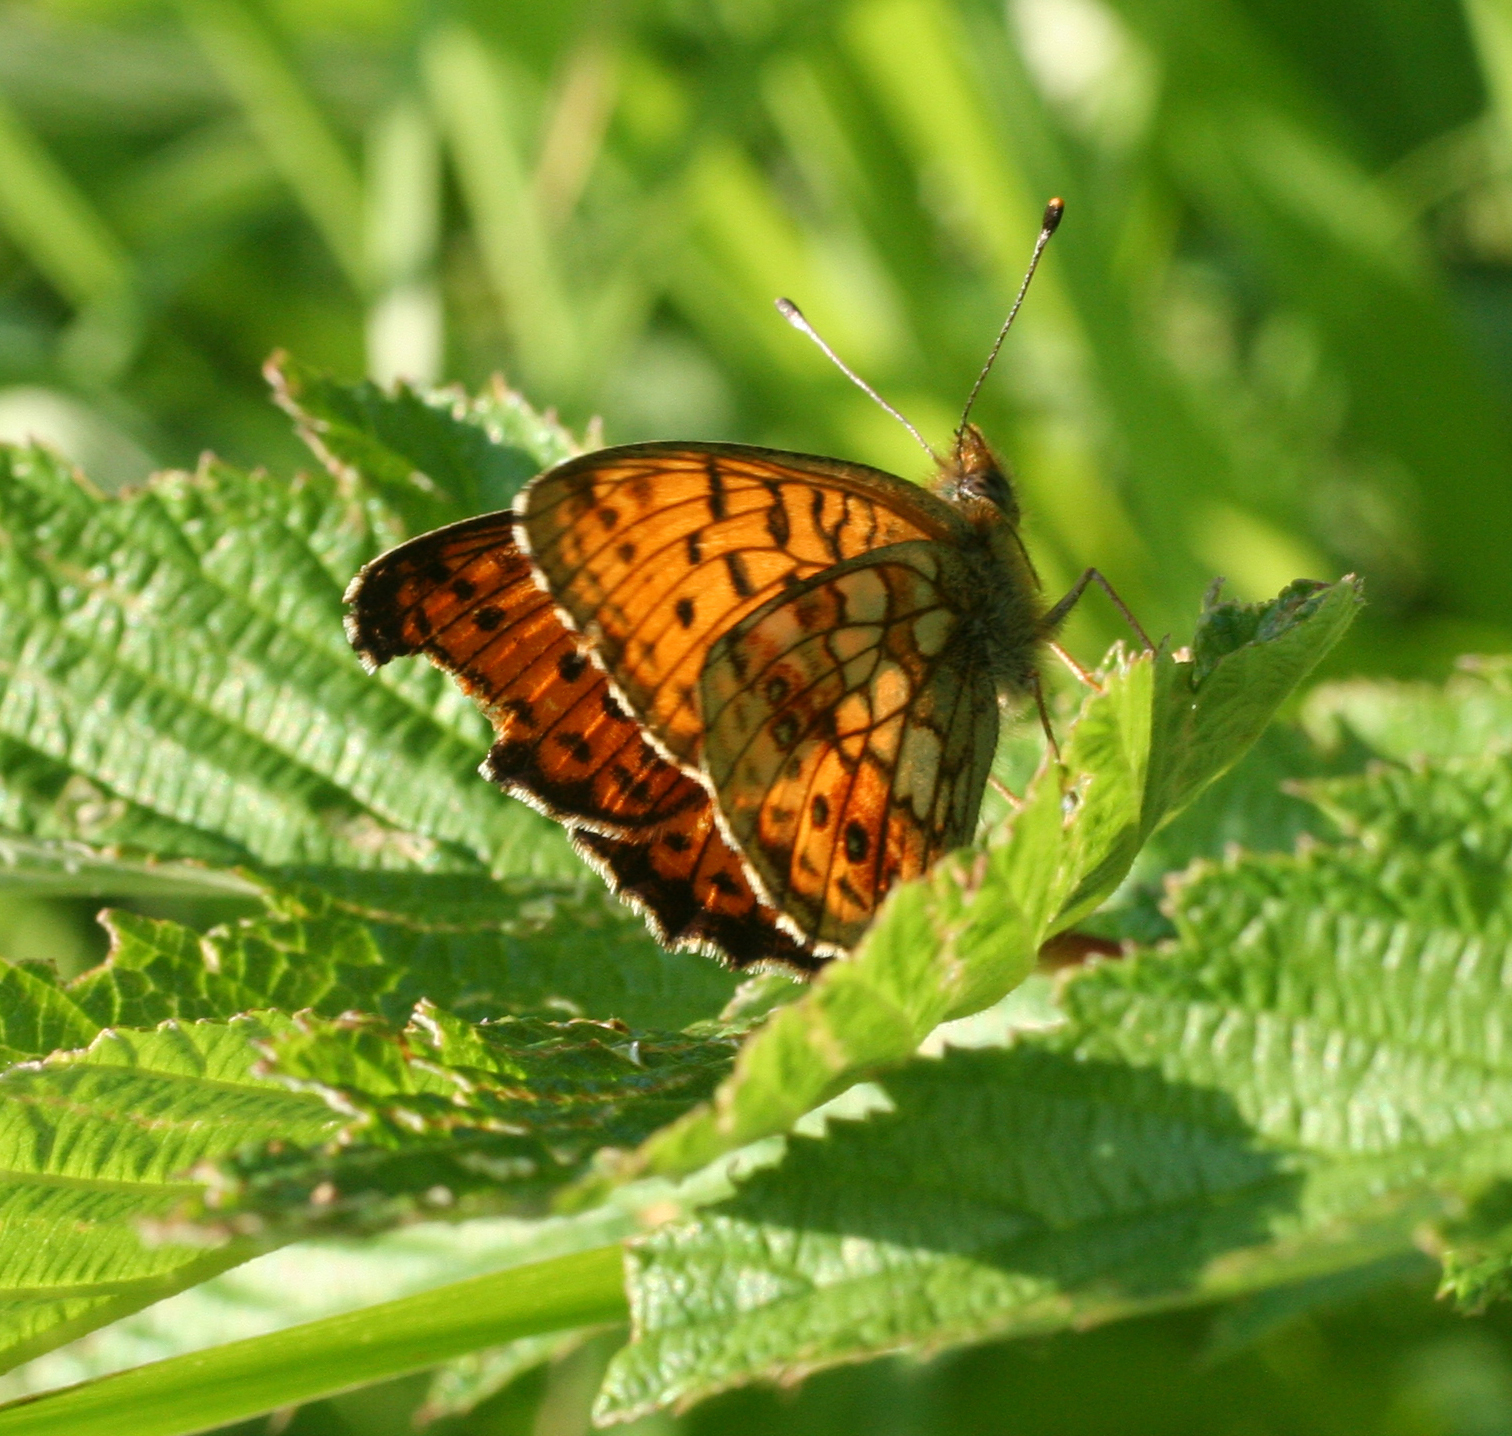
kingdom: Animalia
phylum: Arthropoda
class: Insecta
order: Lepidoptera
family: Nymphalidae
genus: Brenthis
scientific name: Brenthis ino
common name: Lesser marbled fritillary
